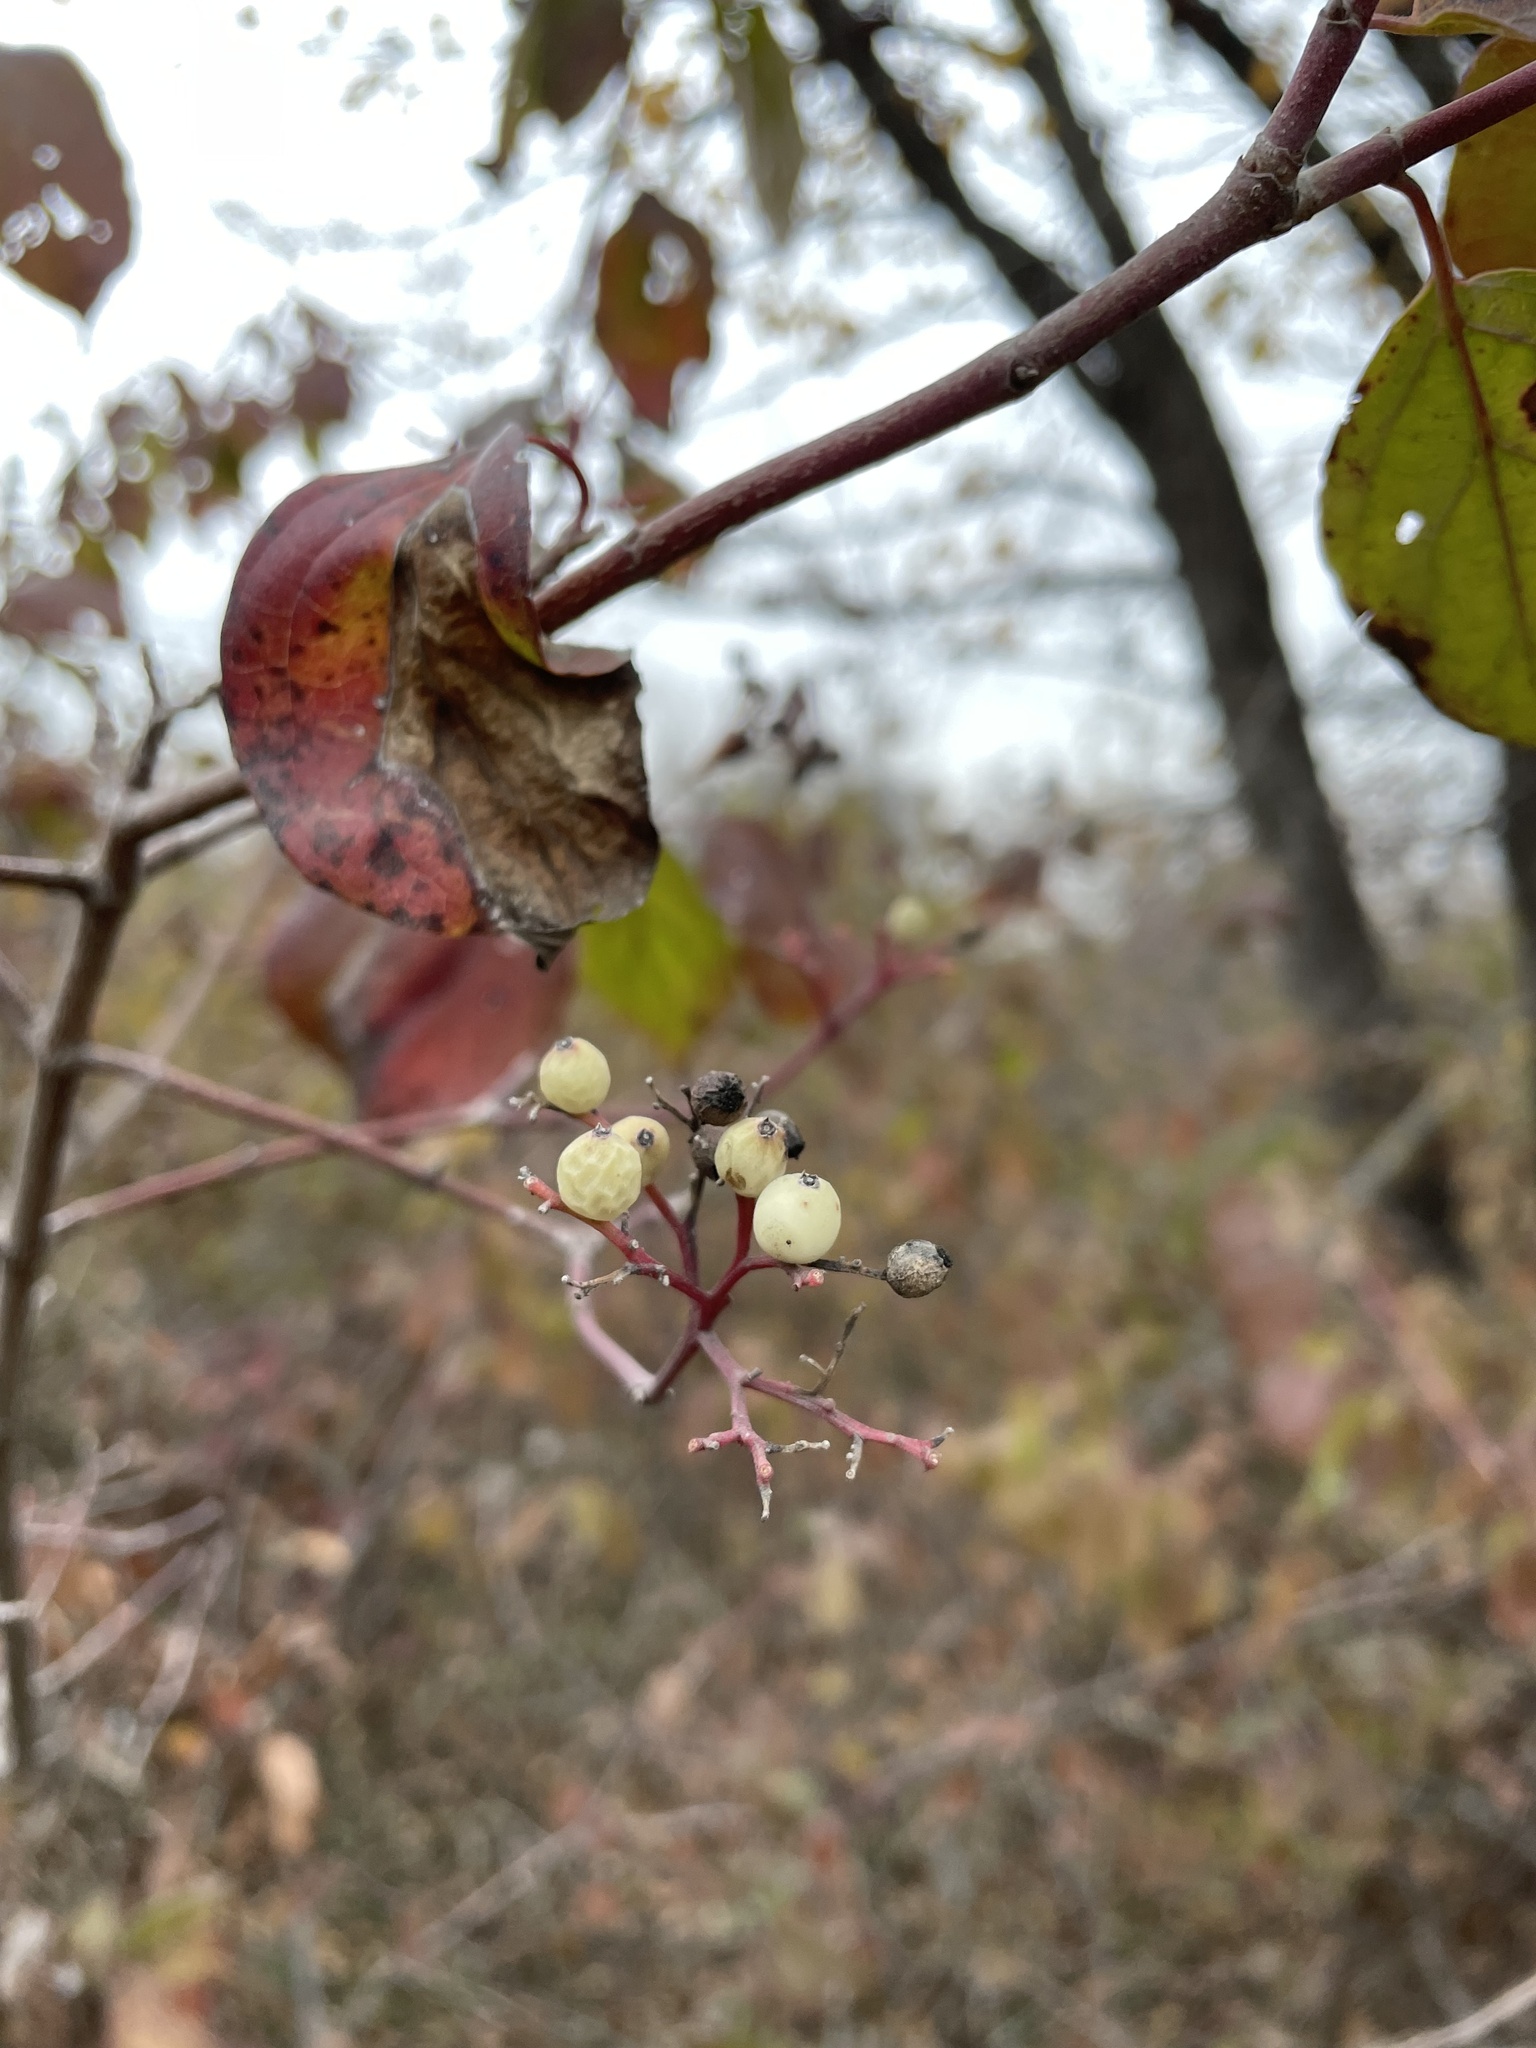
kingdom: Plantae
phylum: Tracheophyta
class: Magnoliopsida
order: Cornales
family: Cornaceae
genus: Cornus
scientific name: Cornus drummondii
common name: Rough-leaf dogwood
